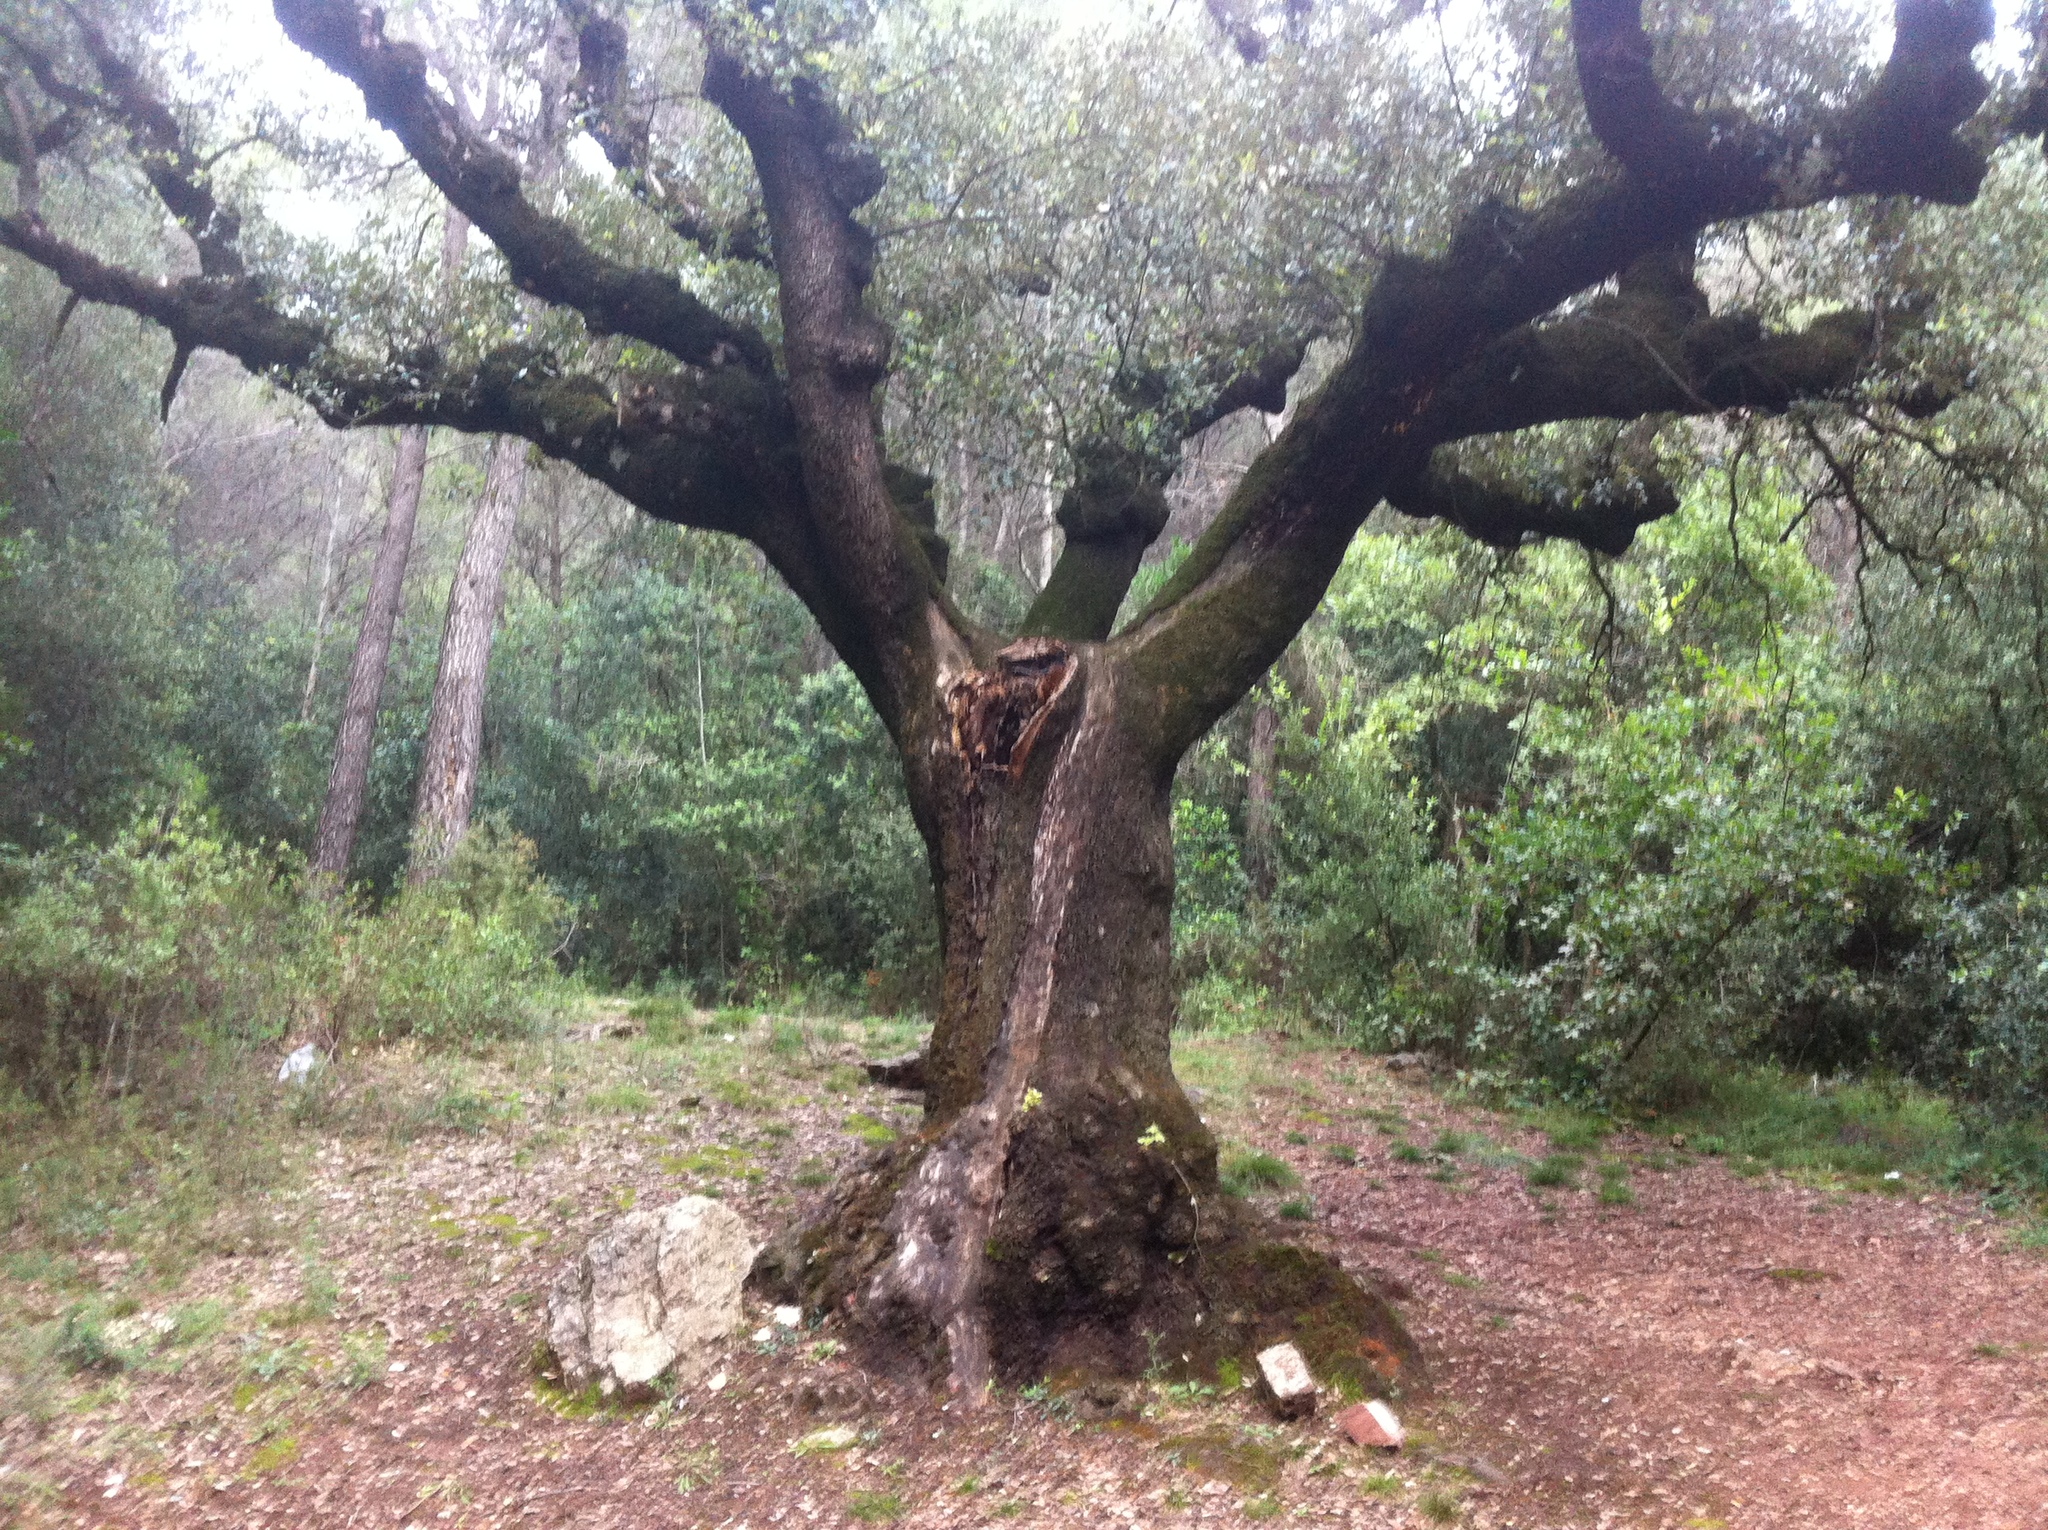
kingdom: Plantae
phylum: Tracheophyta
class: Magnoliopsida
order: Fagales
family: Fagaceae
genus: Quercus
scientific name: Quercus ilex
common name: Evergreen oak
